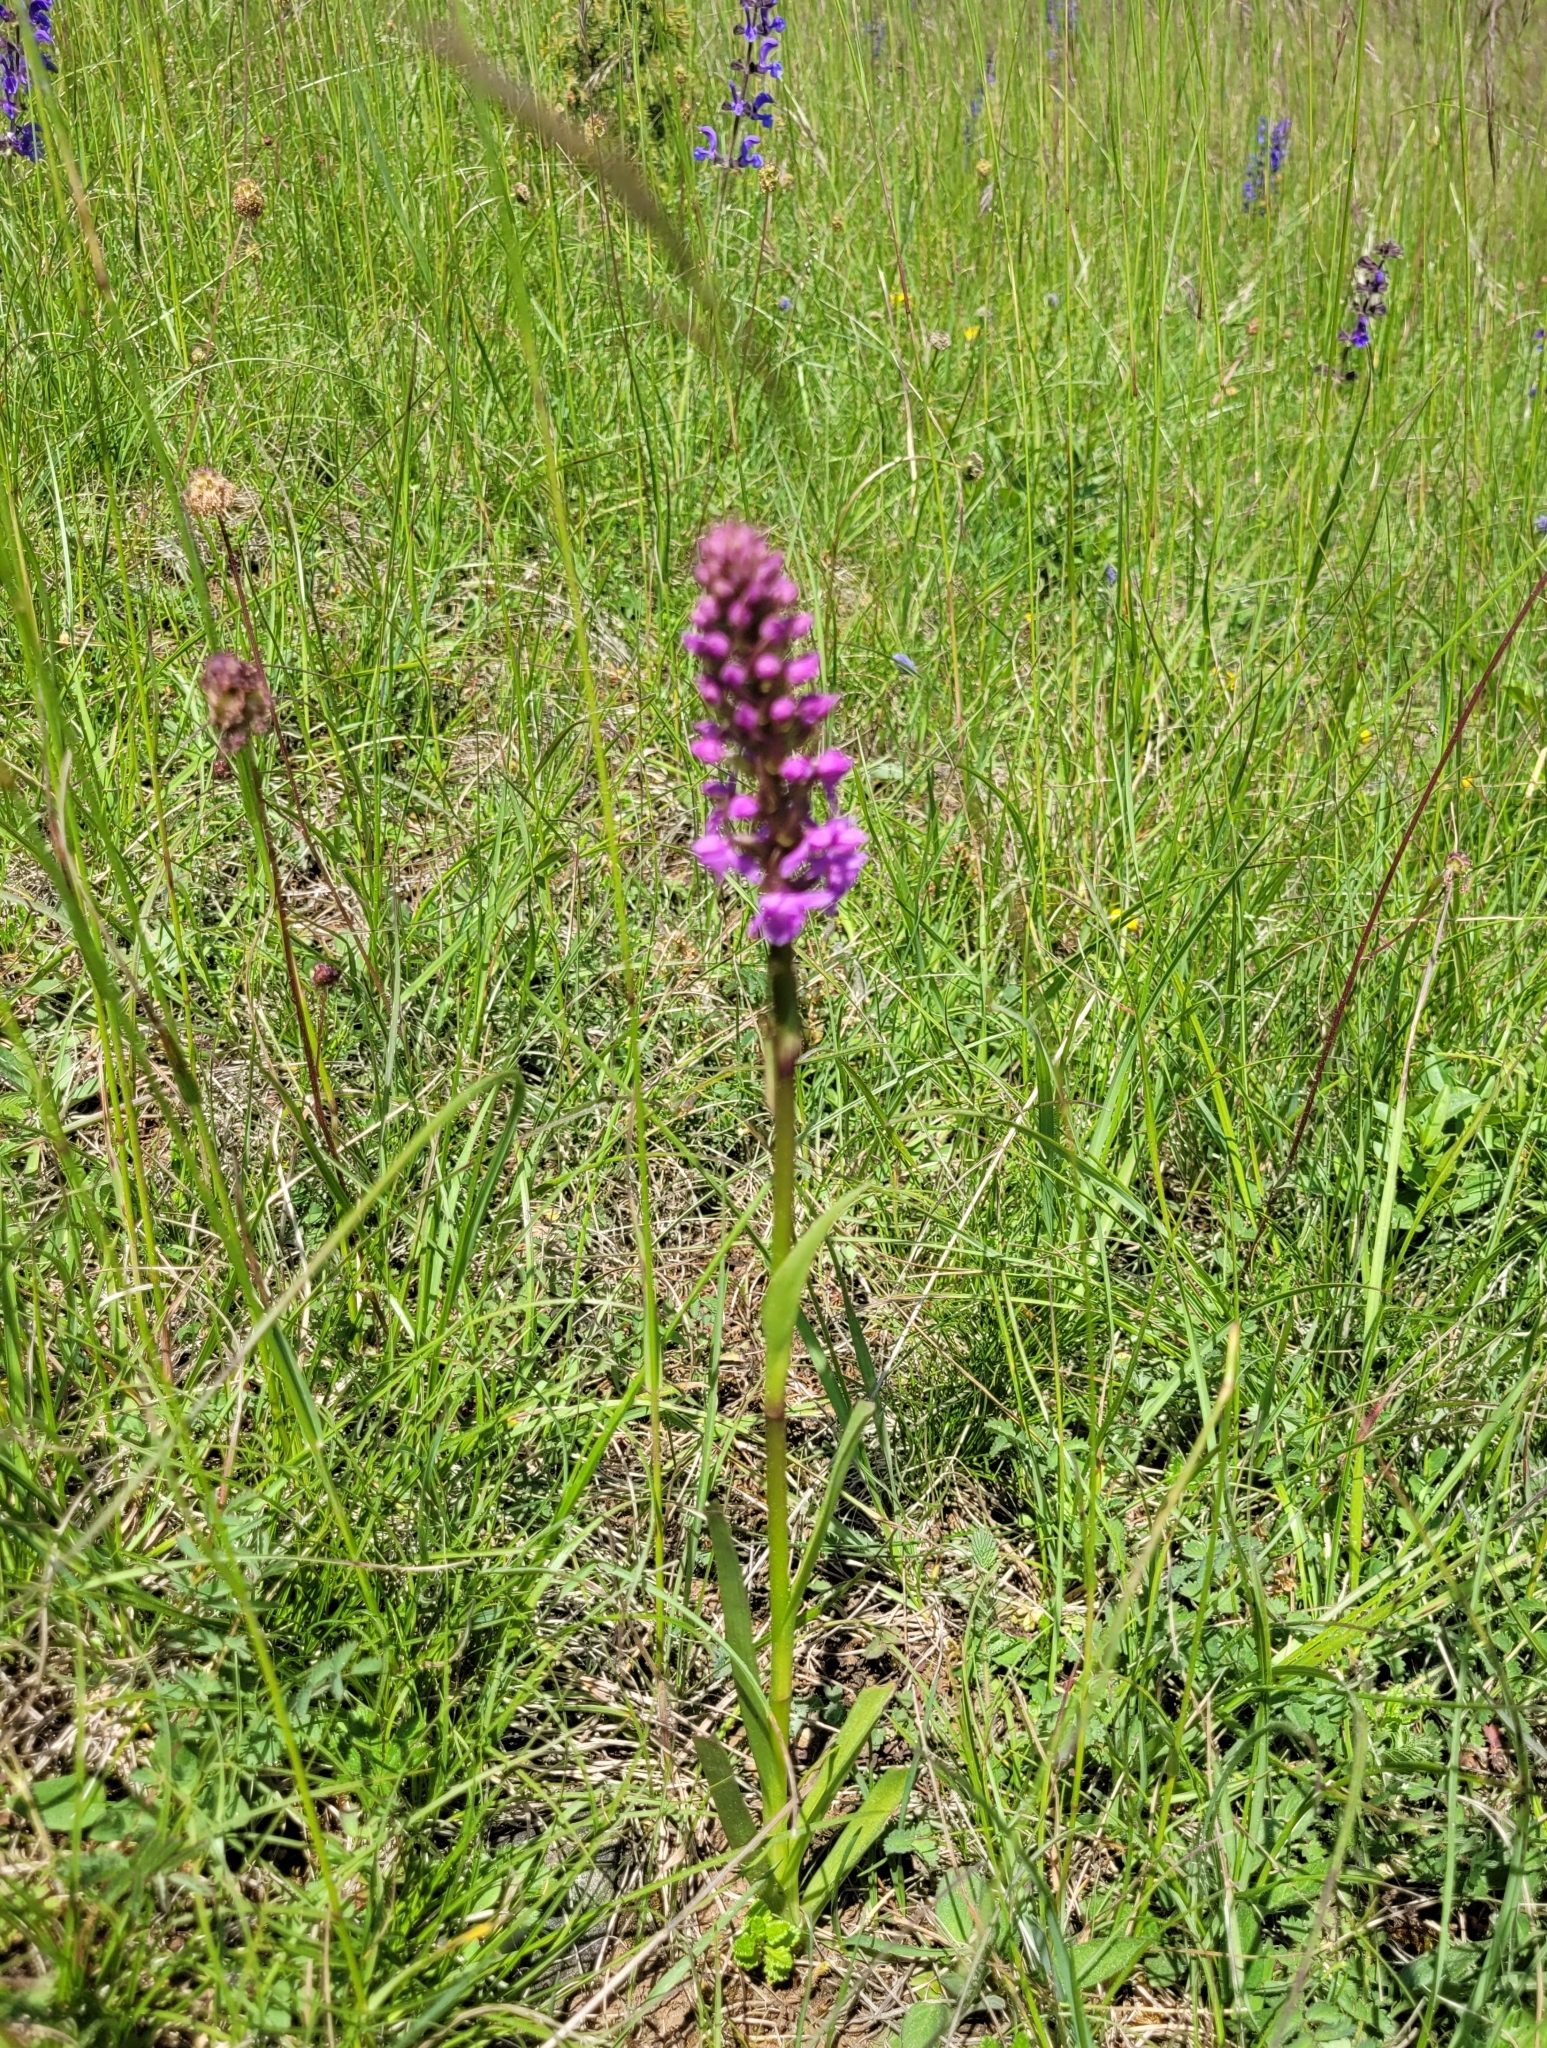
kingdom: Plantae
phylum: Tracheophyta
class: Liliopsida
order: Asparagales
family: Orchidaceae
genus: Gymnadenia
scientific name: Gymnadenia conopsea
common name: Fragrant orchid
